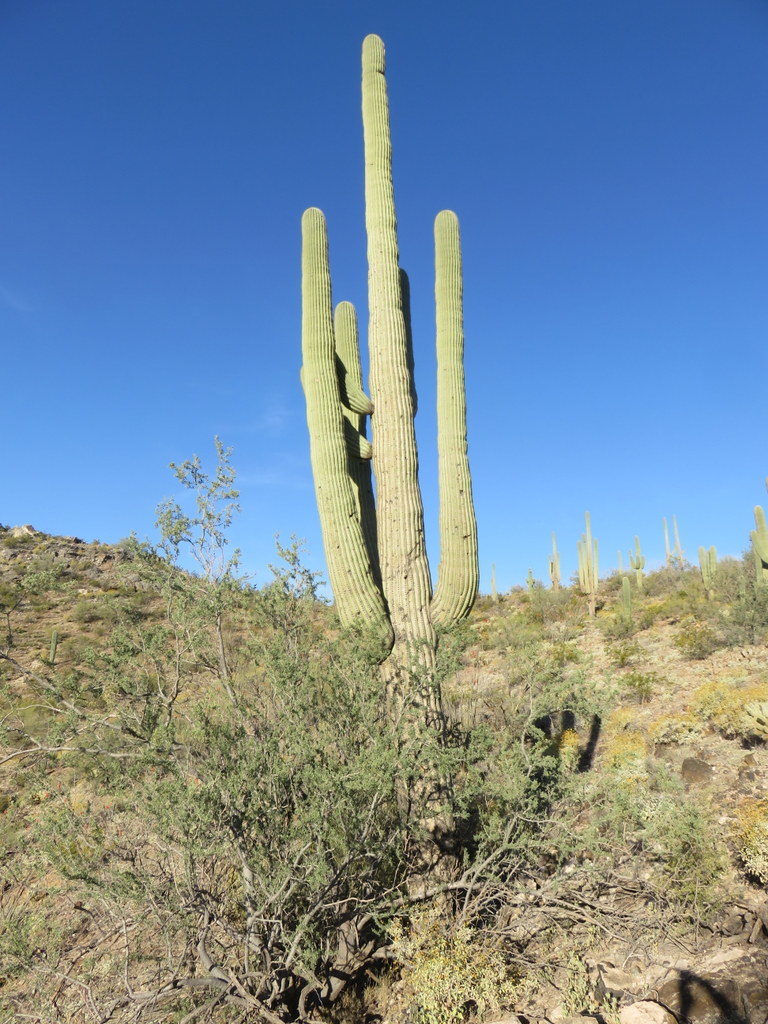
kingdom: Plantae
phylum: Tracheophyta
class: Magnoliopsida
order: Caryophyllales
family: Cactaceae
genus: Carnegiea
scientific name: Carnegiea gigantea
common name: Saguaro
